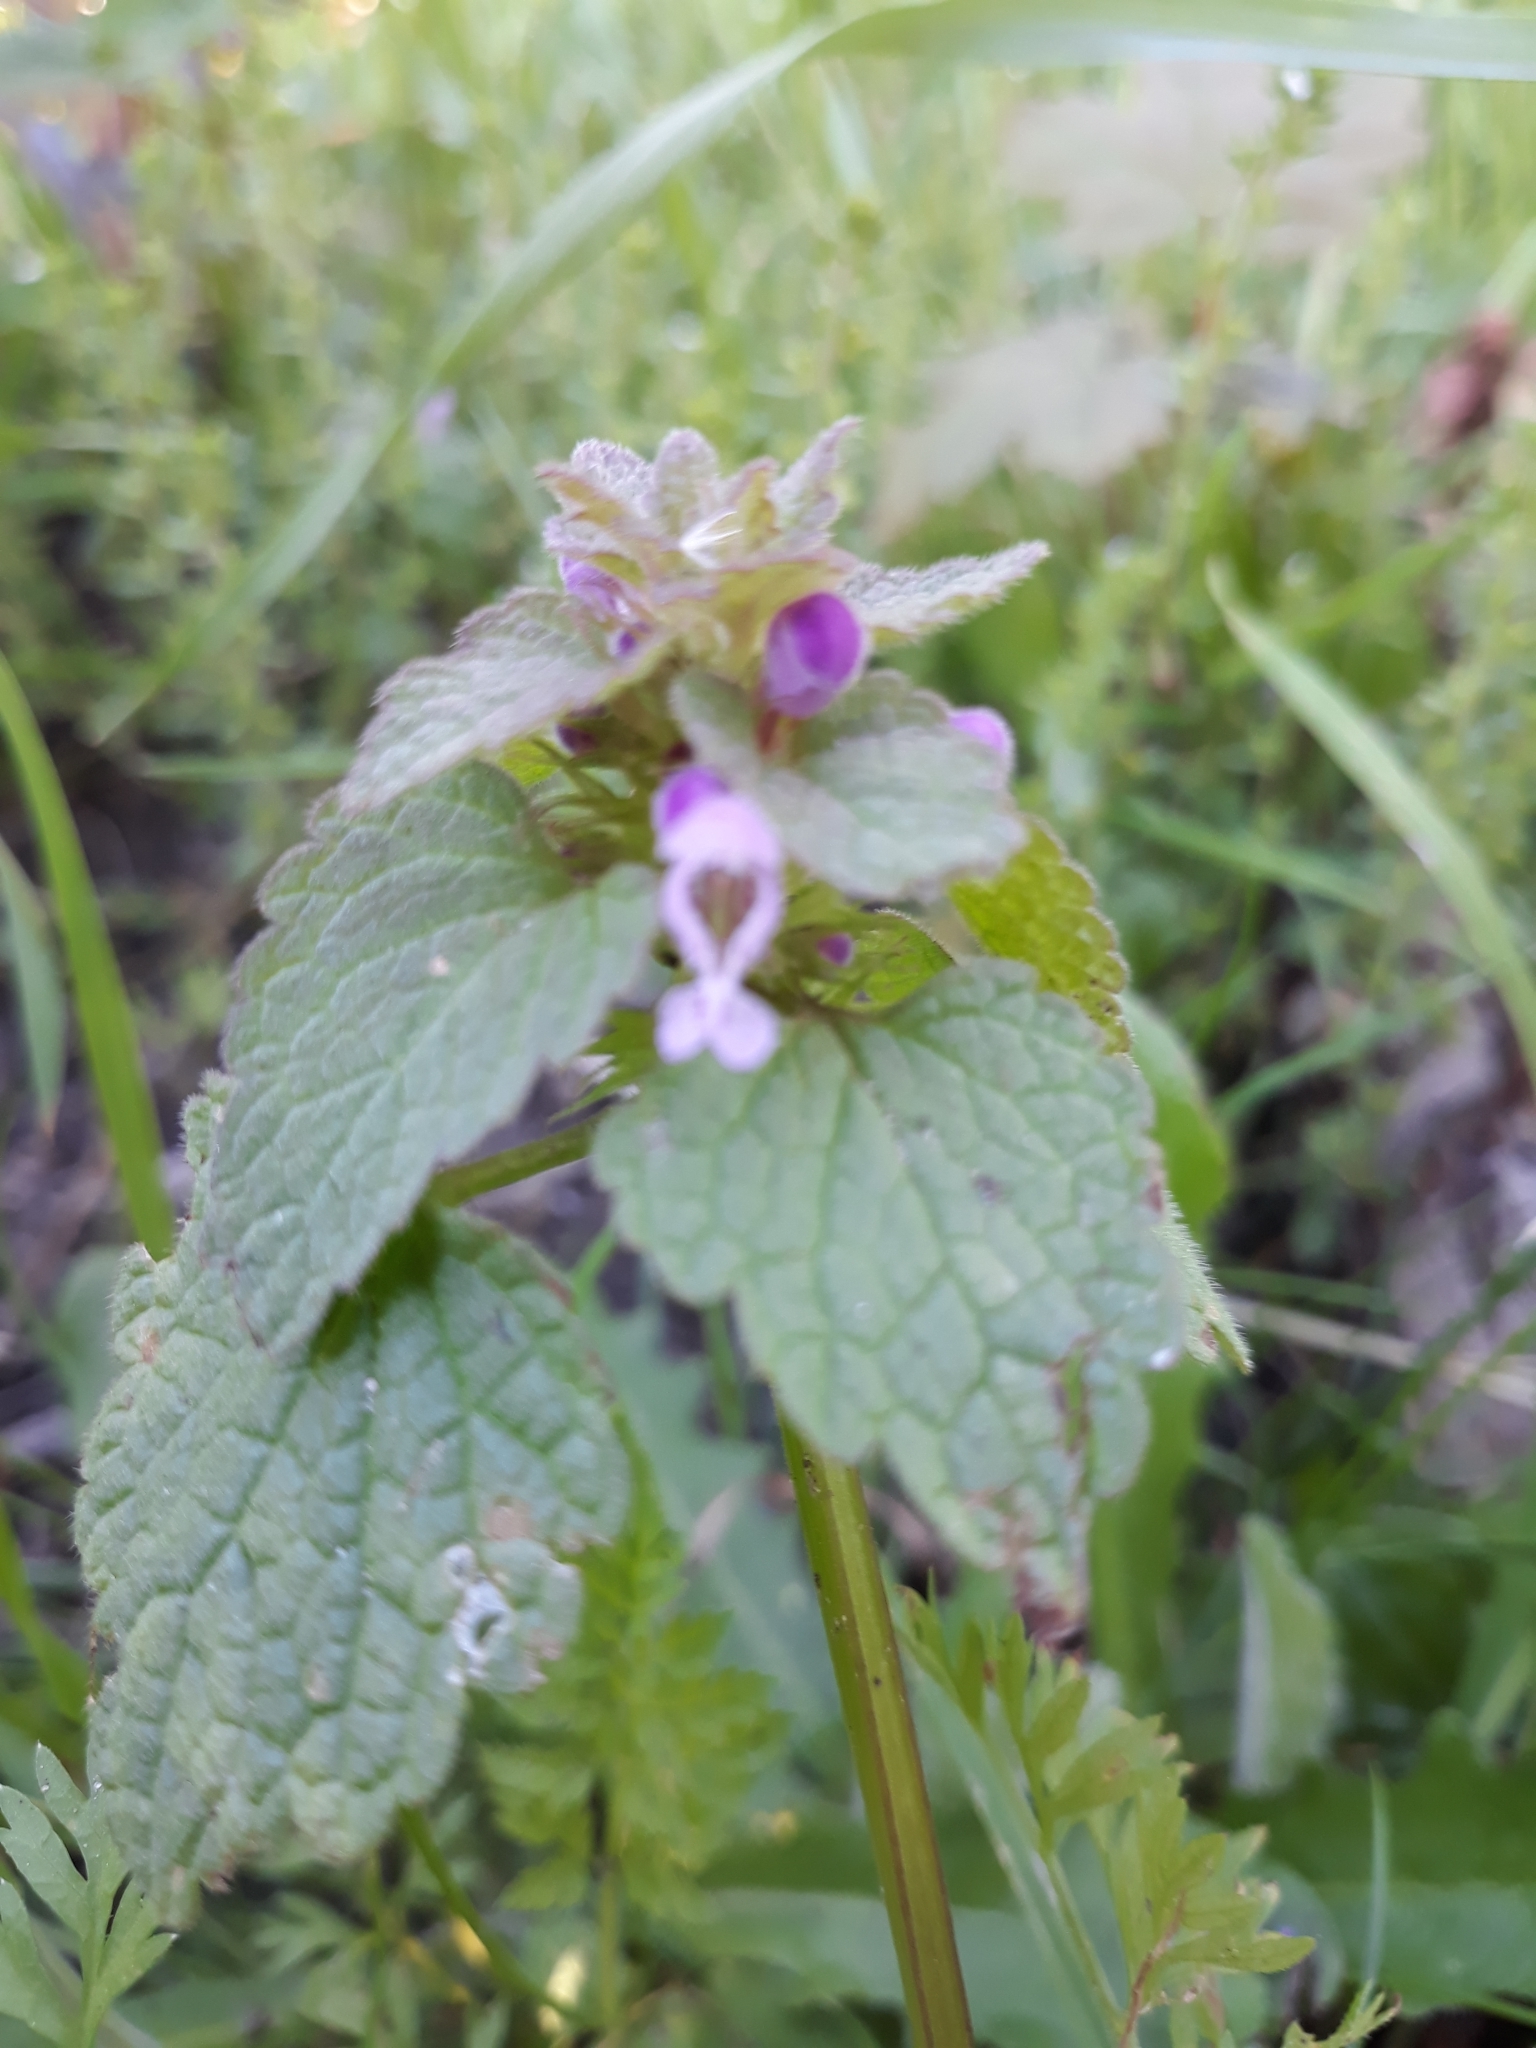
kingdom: Plantae
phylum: Tracheophyta
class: Magnoliopsida
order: Lamiales
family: Lamiaceae
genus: Lamium
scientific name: Lamium purpureum
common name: Red dead-nettle
